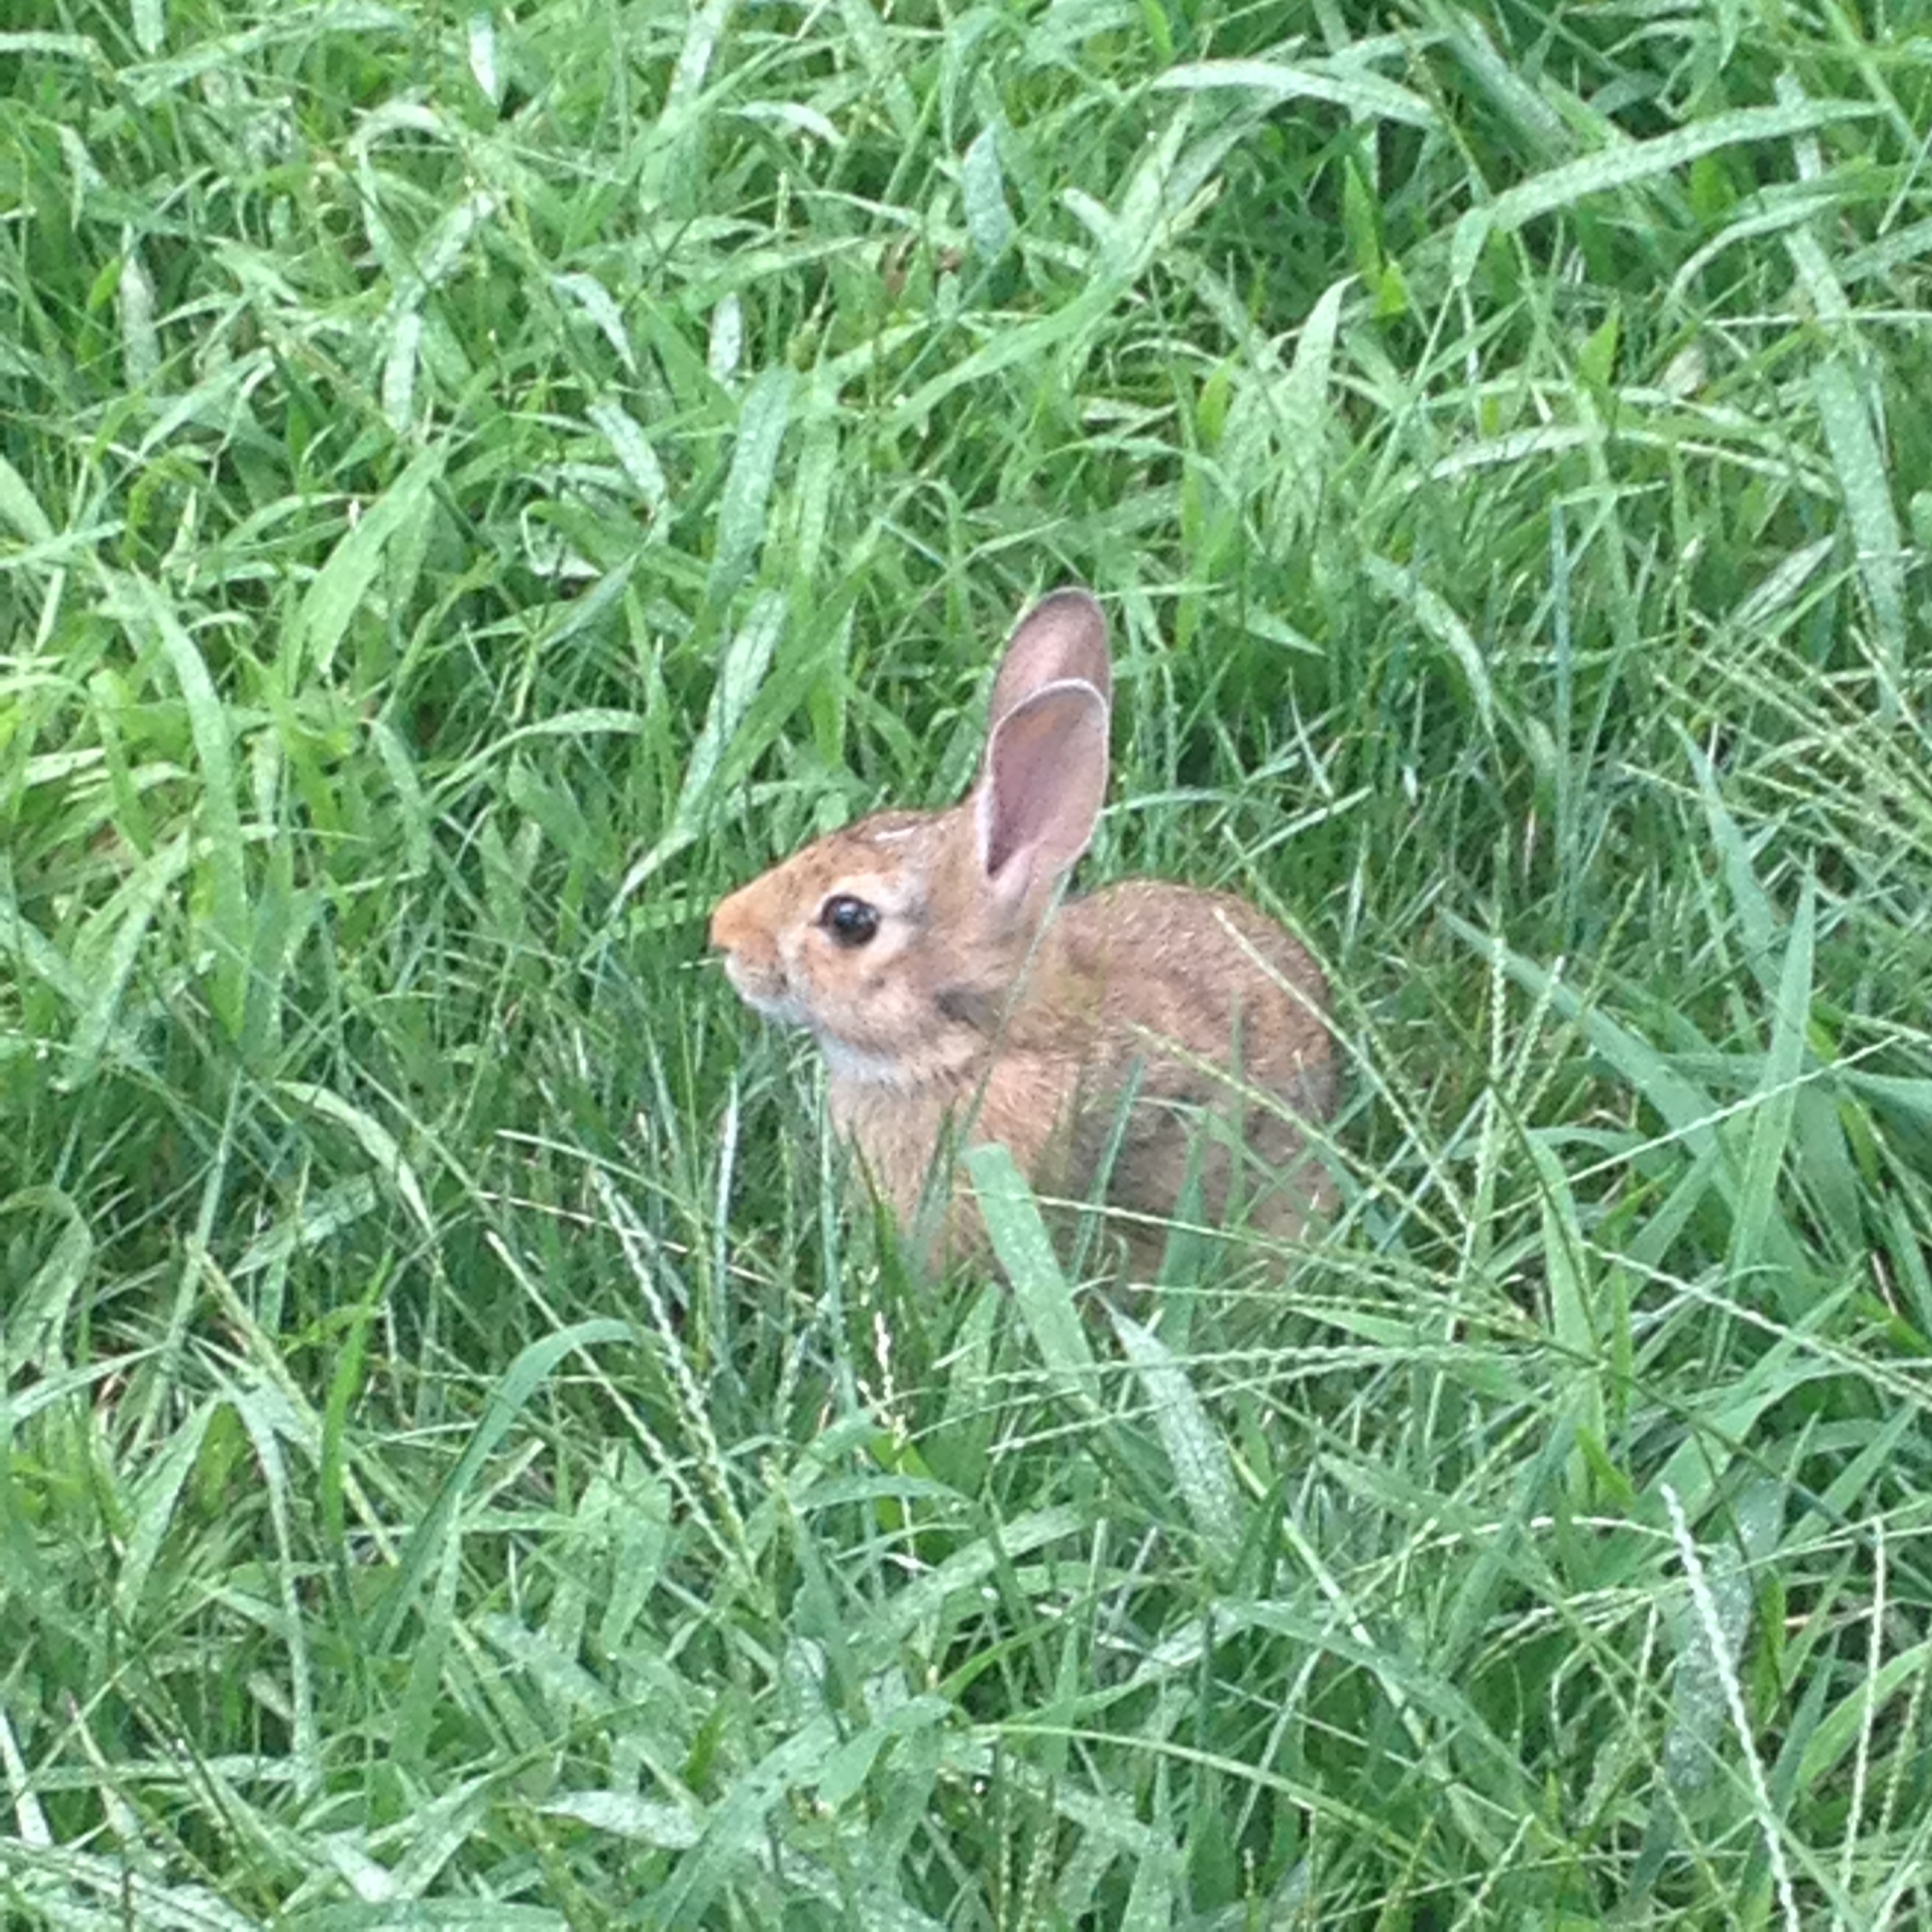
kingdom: Animalia
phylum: Chordata
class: Mammalia
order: Lagomorpha
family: Leporidae
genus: Sylvilagus
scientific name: Sylvilagus floridanus
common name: Eastern cottontail
